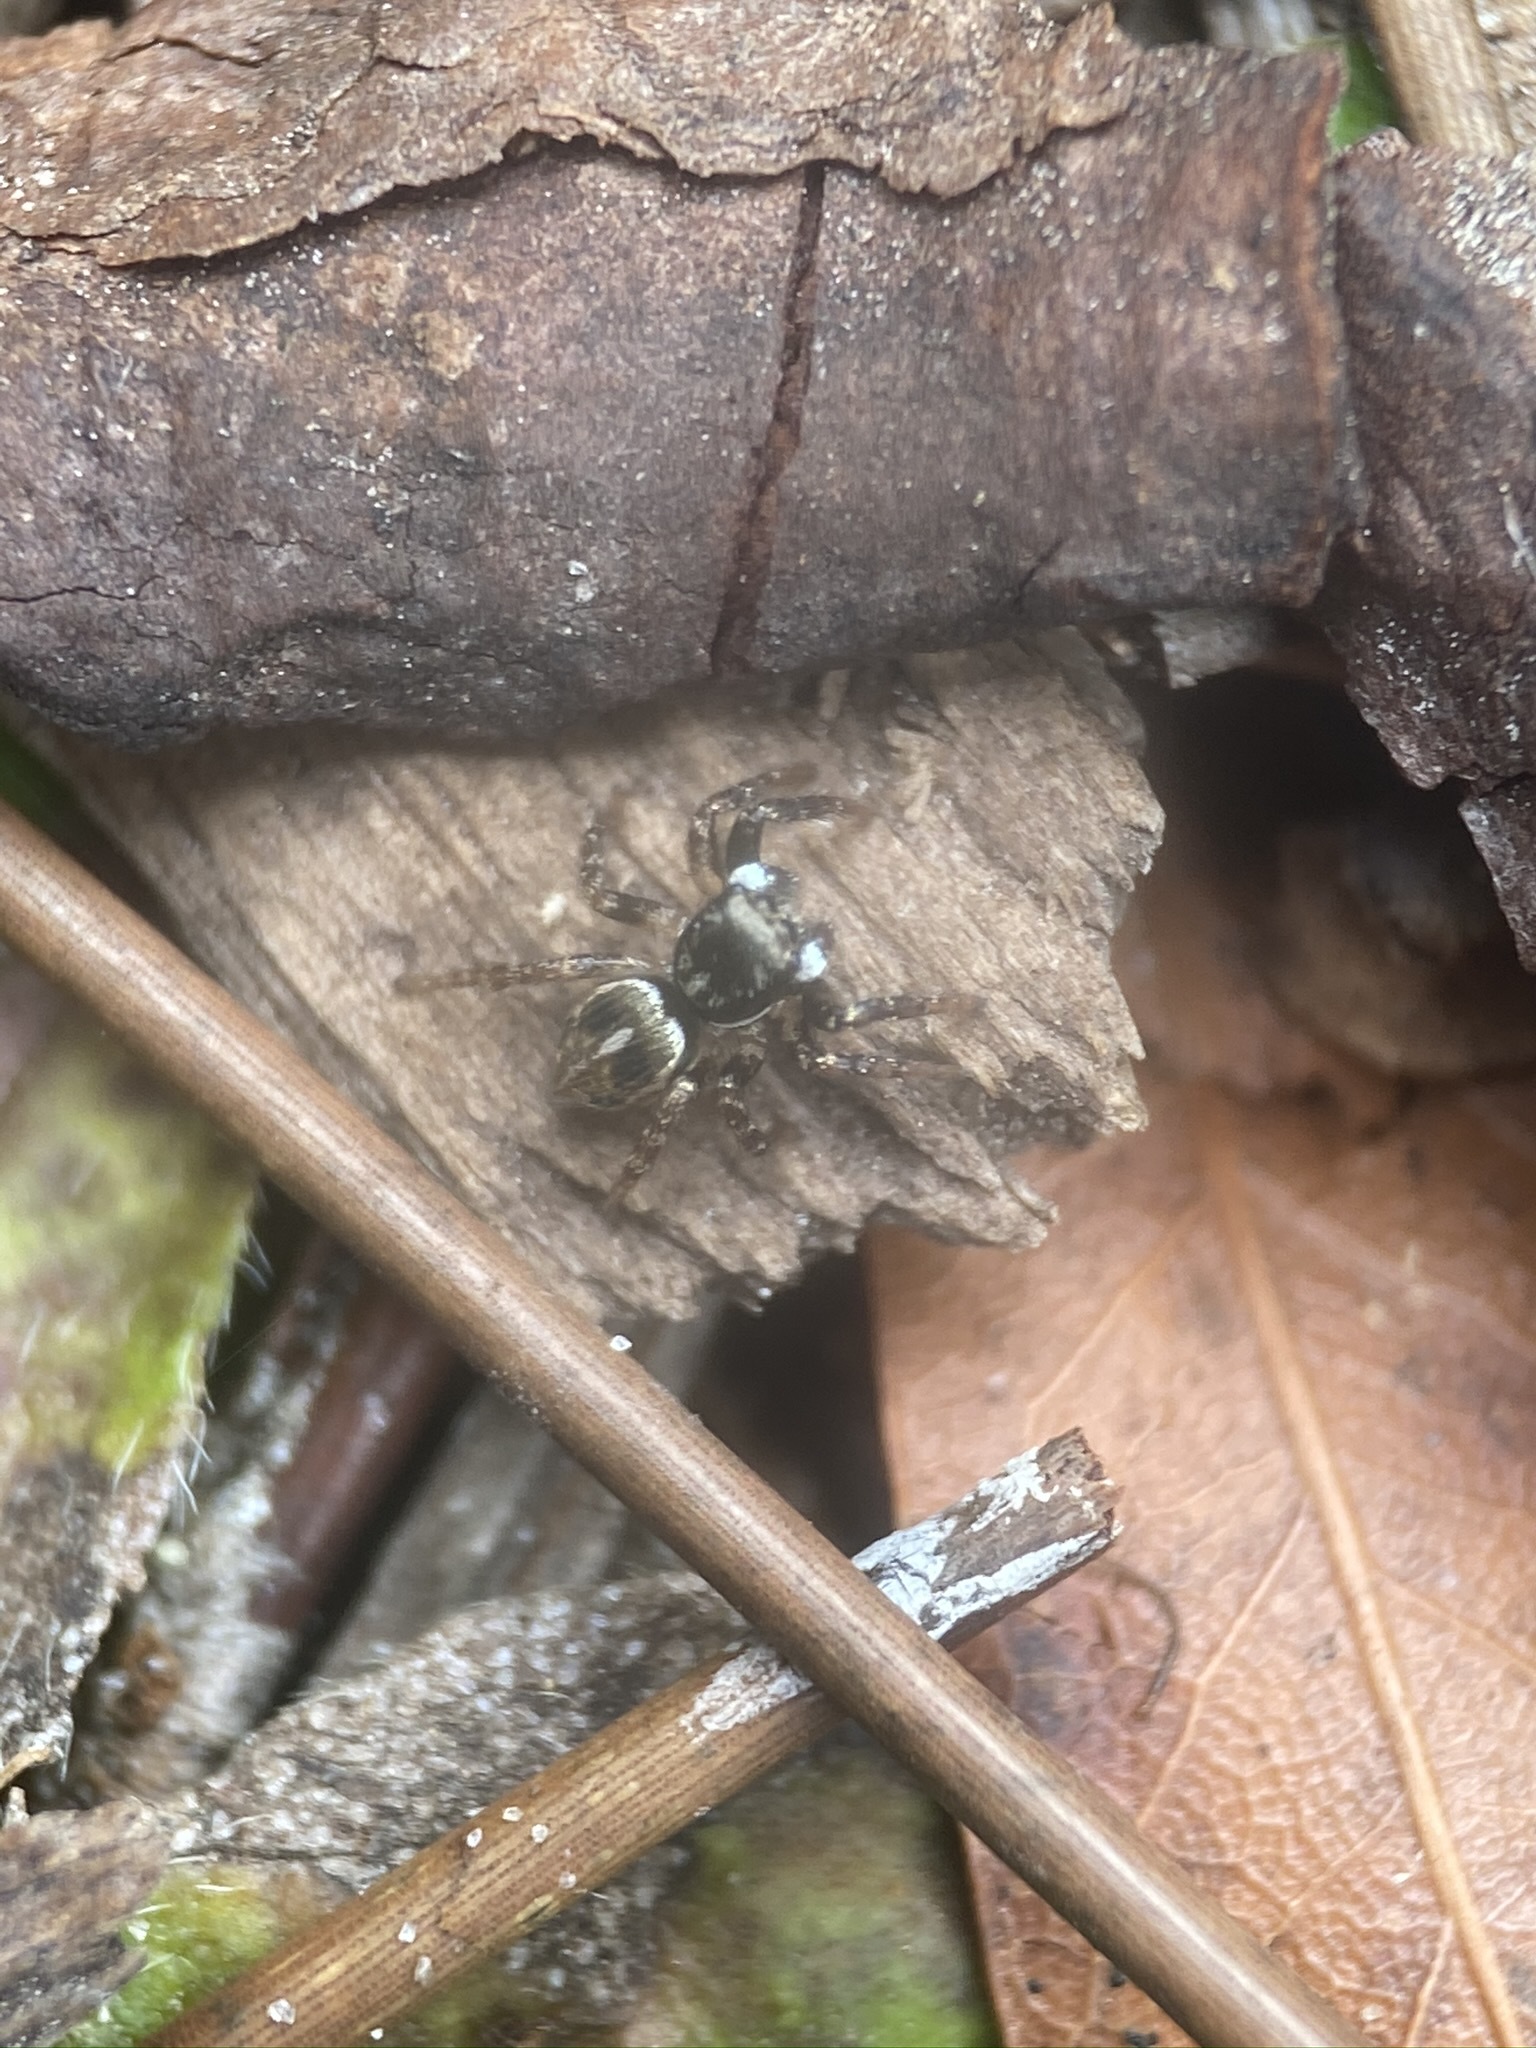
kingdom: Animalia
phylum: Arthropoda
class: Arachnida
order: Araneae
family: Salticidae
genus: Anasaitis
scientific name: Anasaitis canosa
